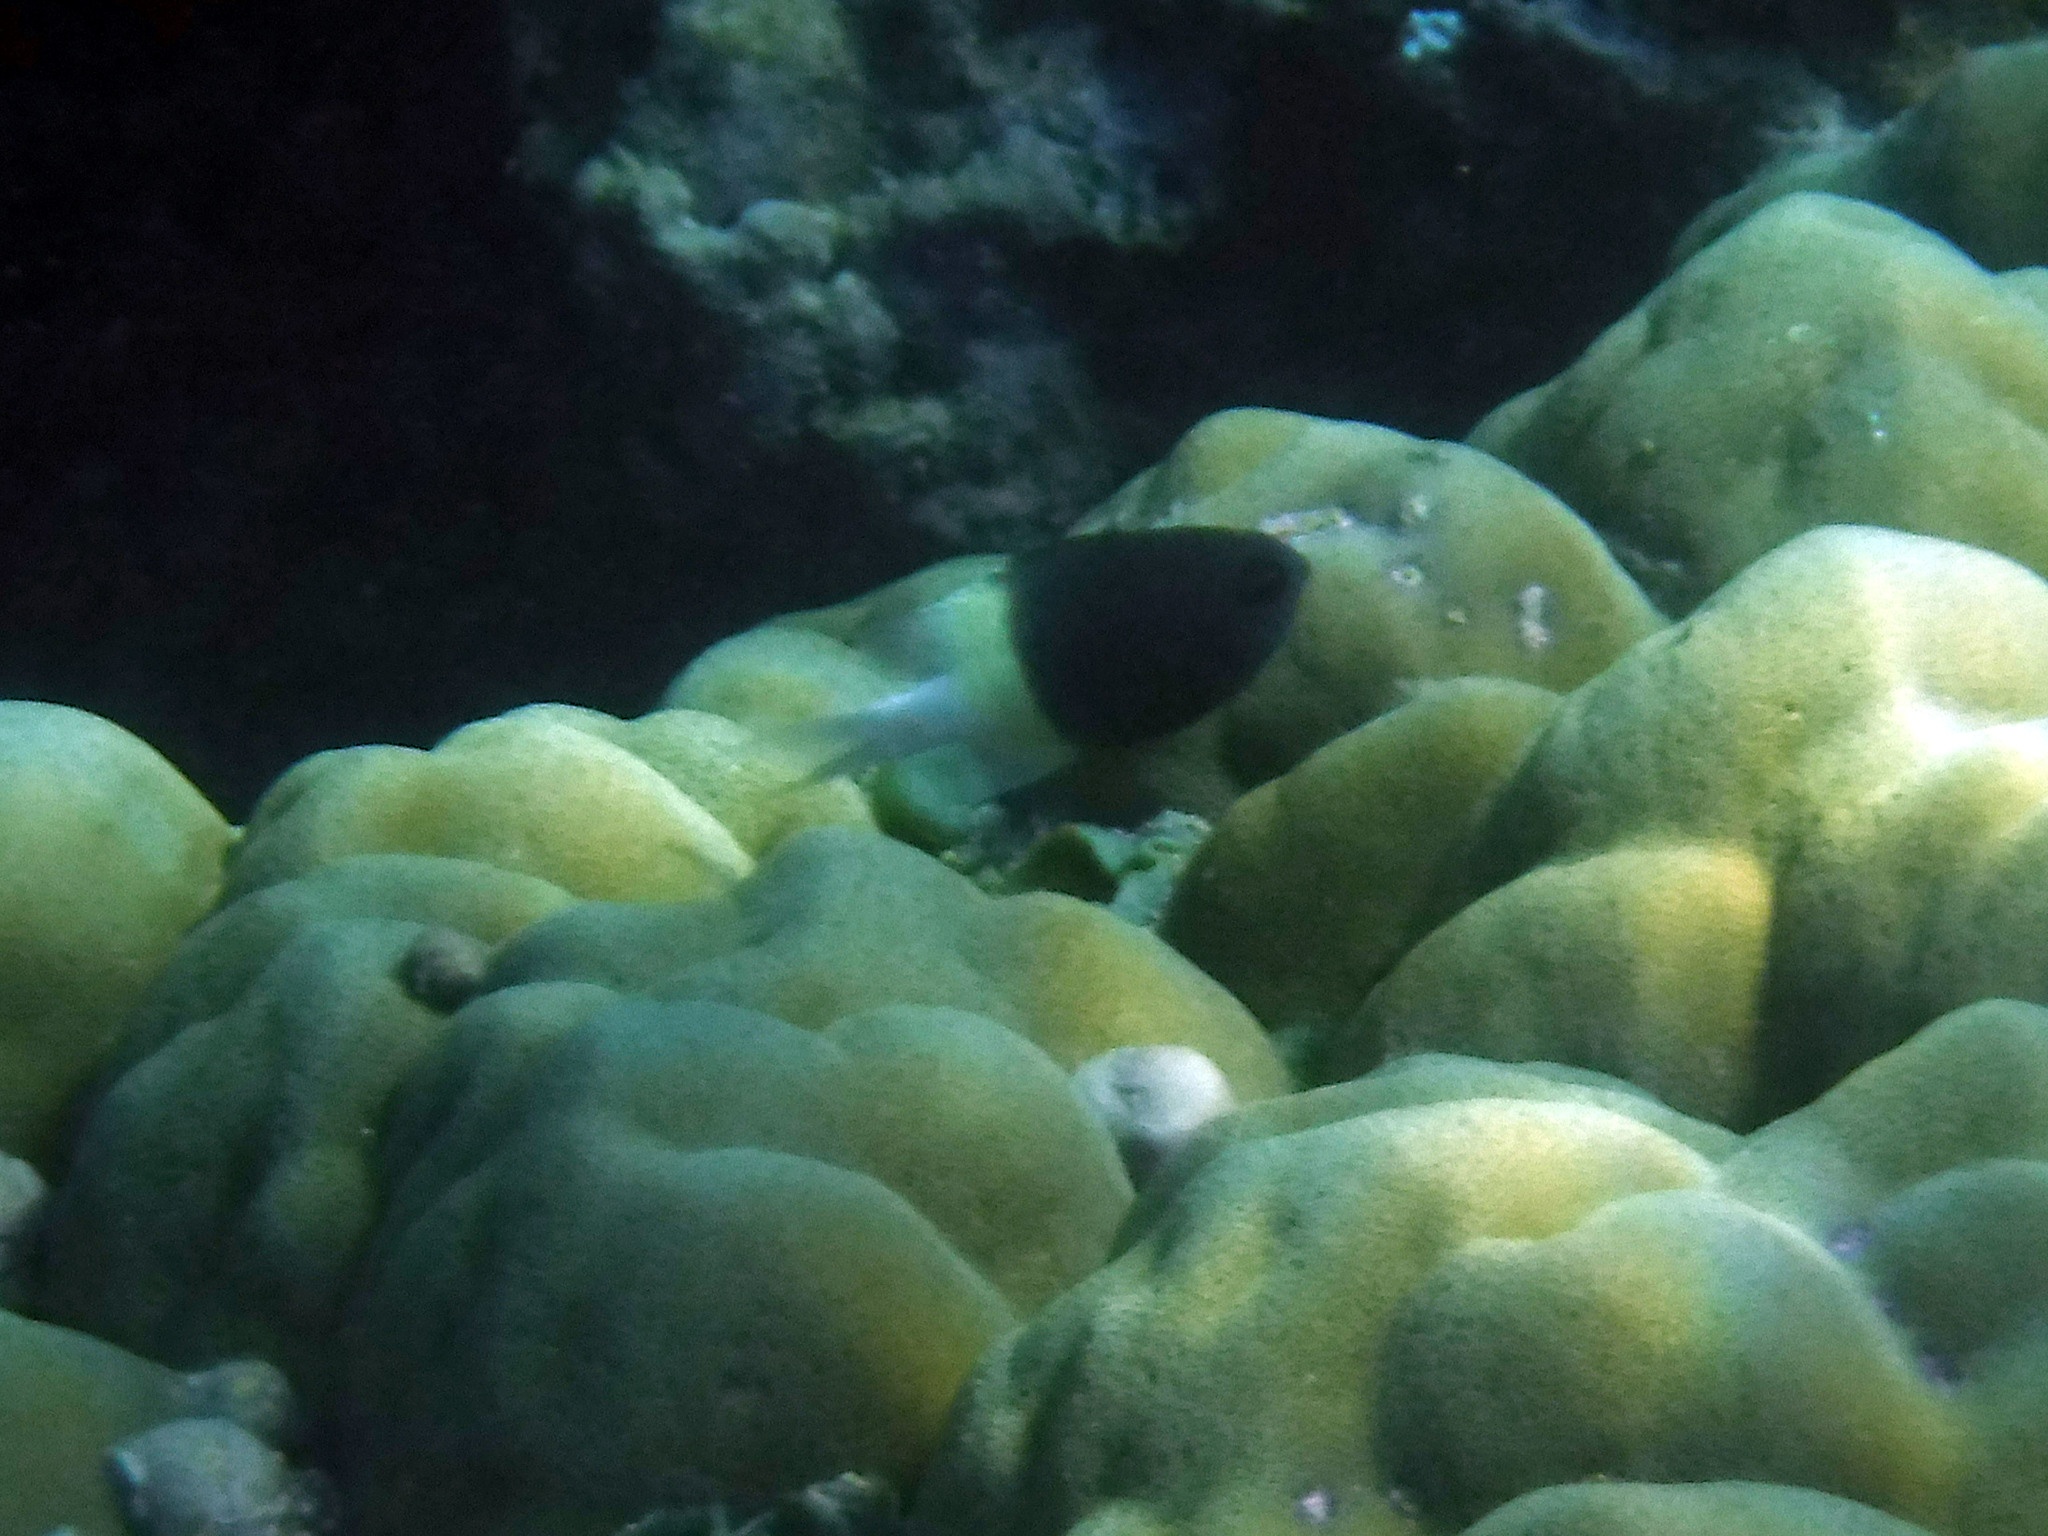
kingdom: Animalia
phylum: Chordata
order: Perciformes
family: Pomacentridae
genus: Chromis
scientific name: Chromis fieldi
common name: Chocolatedip chromis
